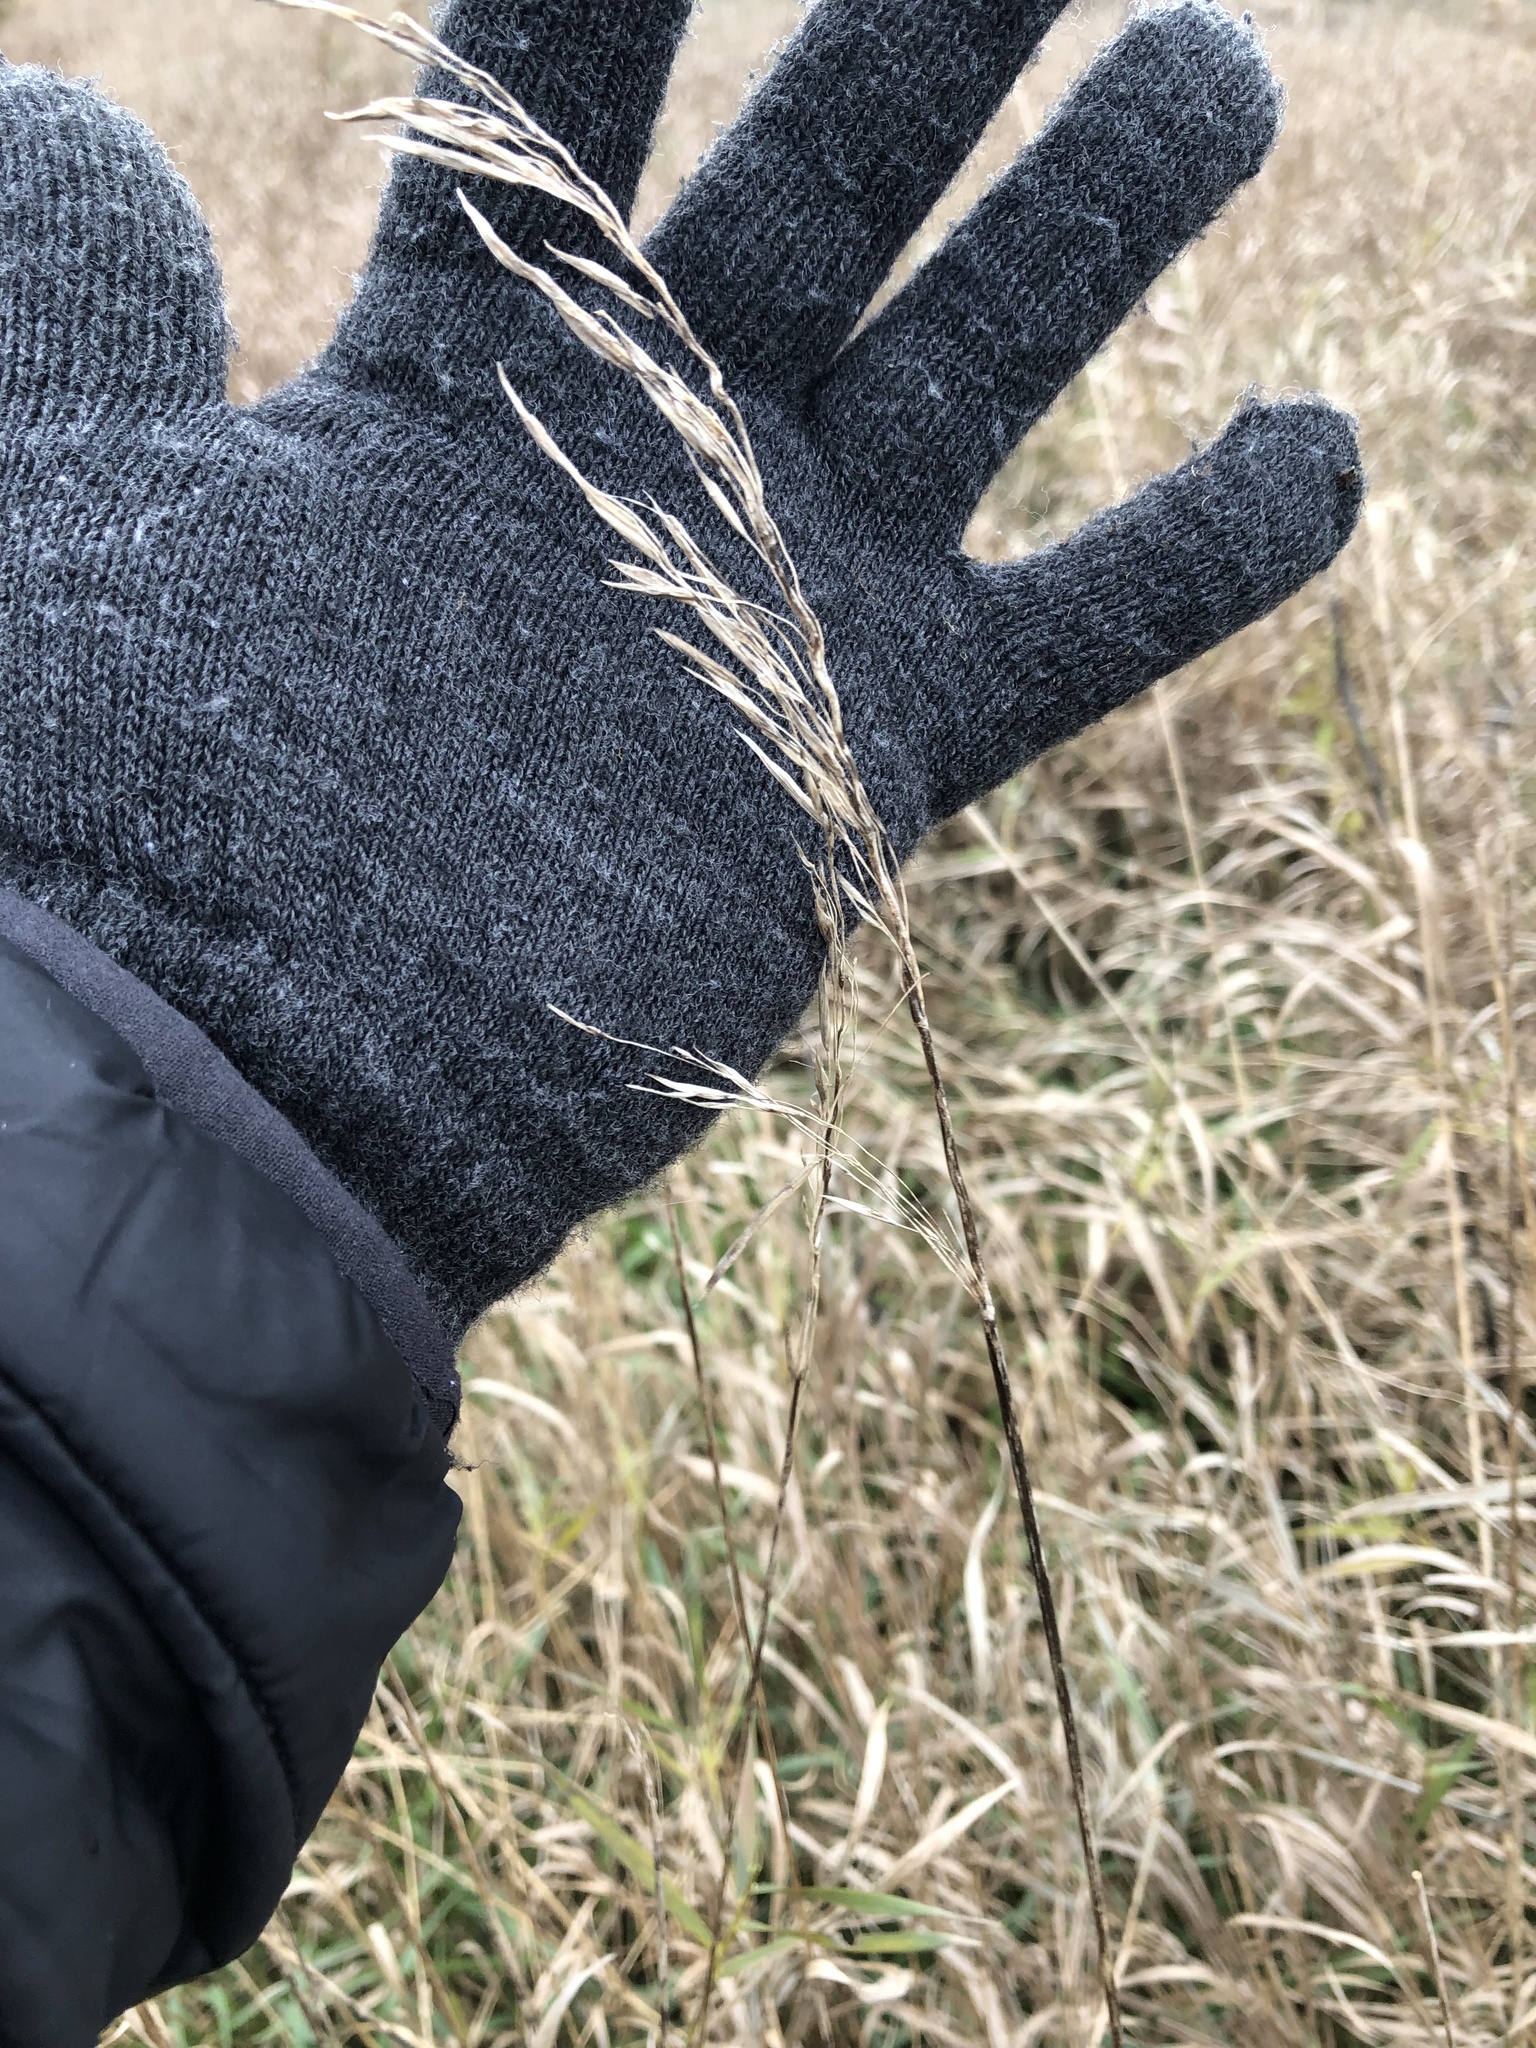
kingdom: Plantae
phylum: Tracheophyta
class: Liliopsida
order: Poales
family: Poaceae
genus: Bromus
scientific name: Bromus inermis
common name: Smooth brome
